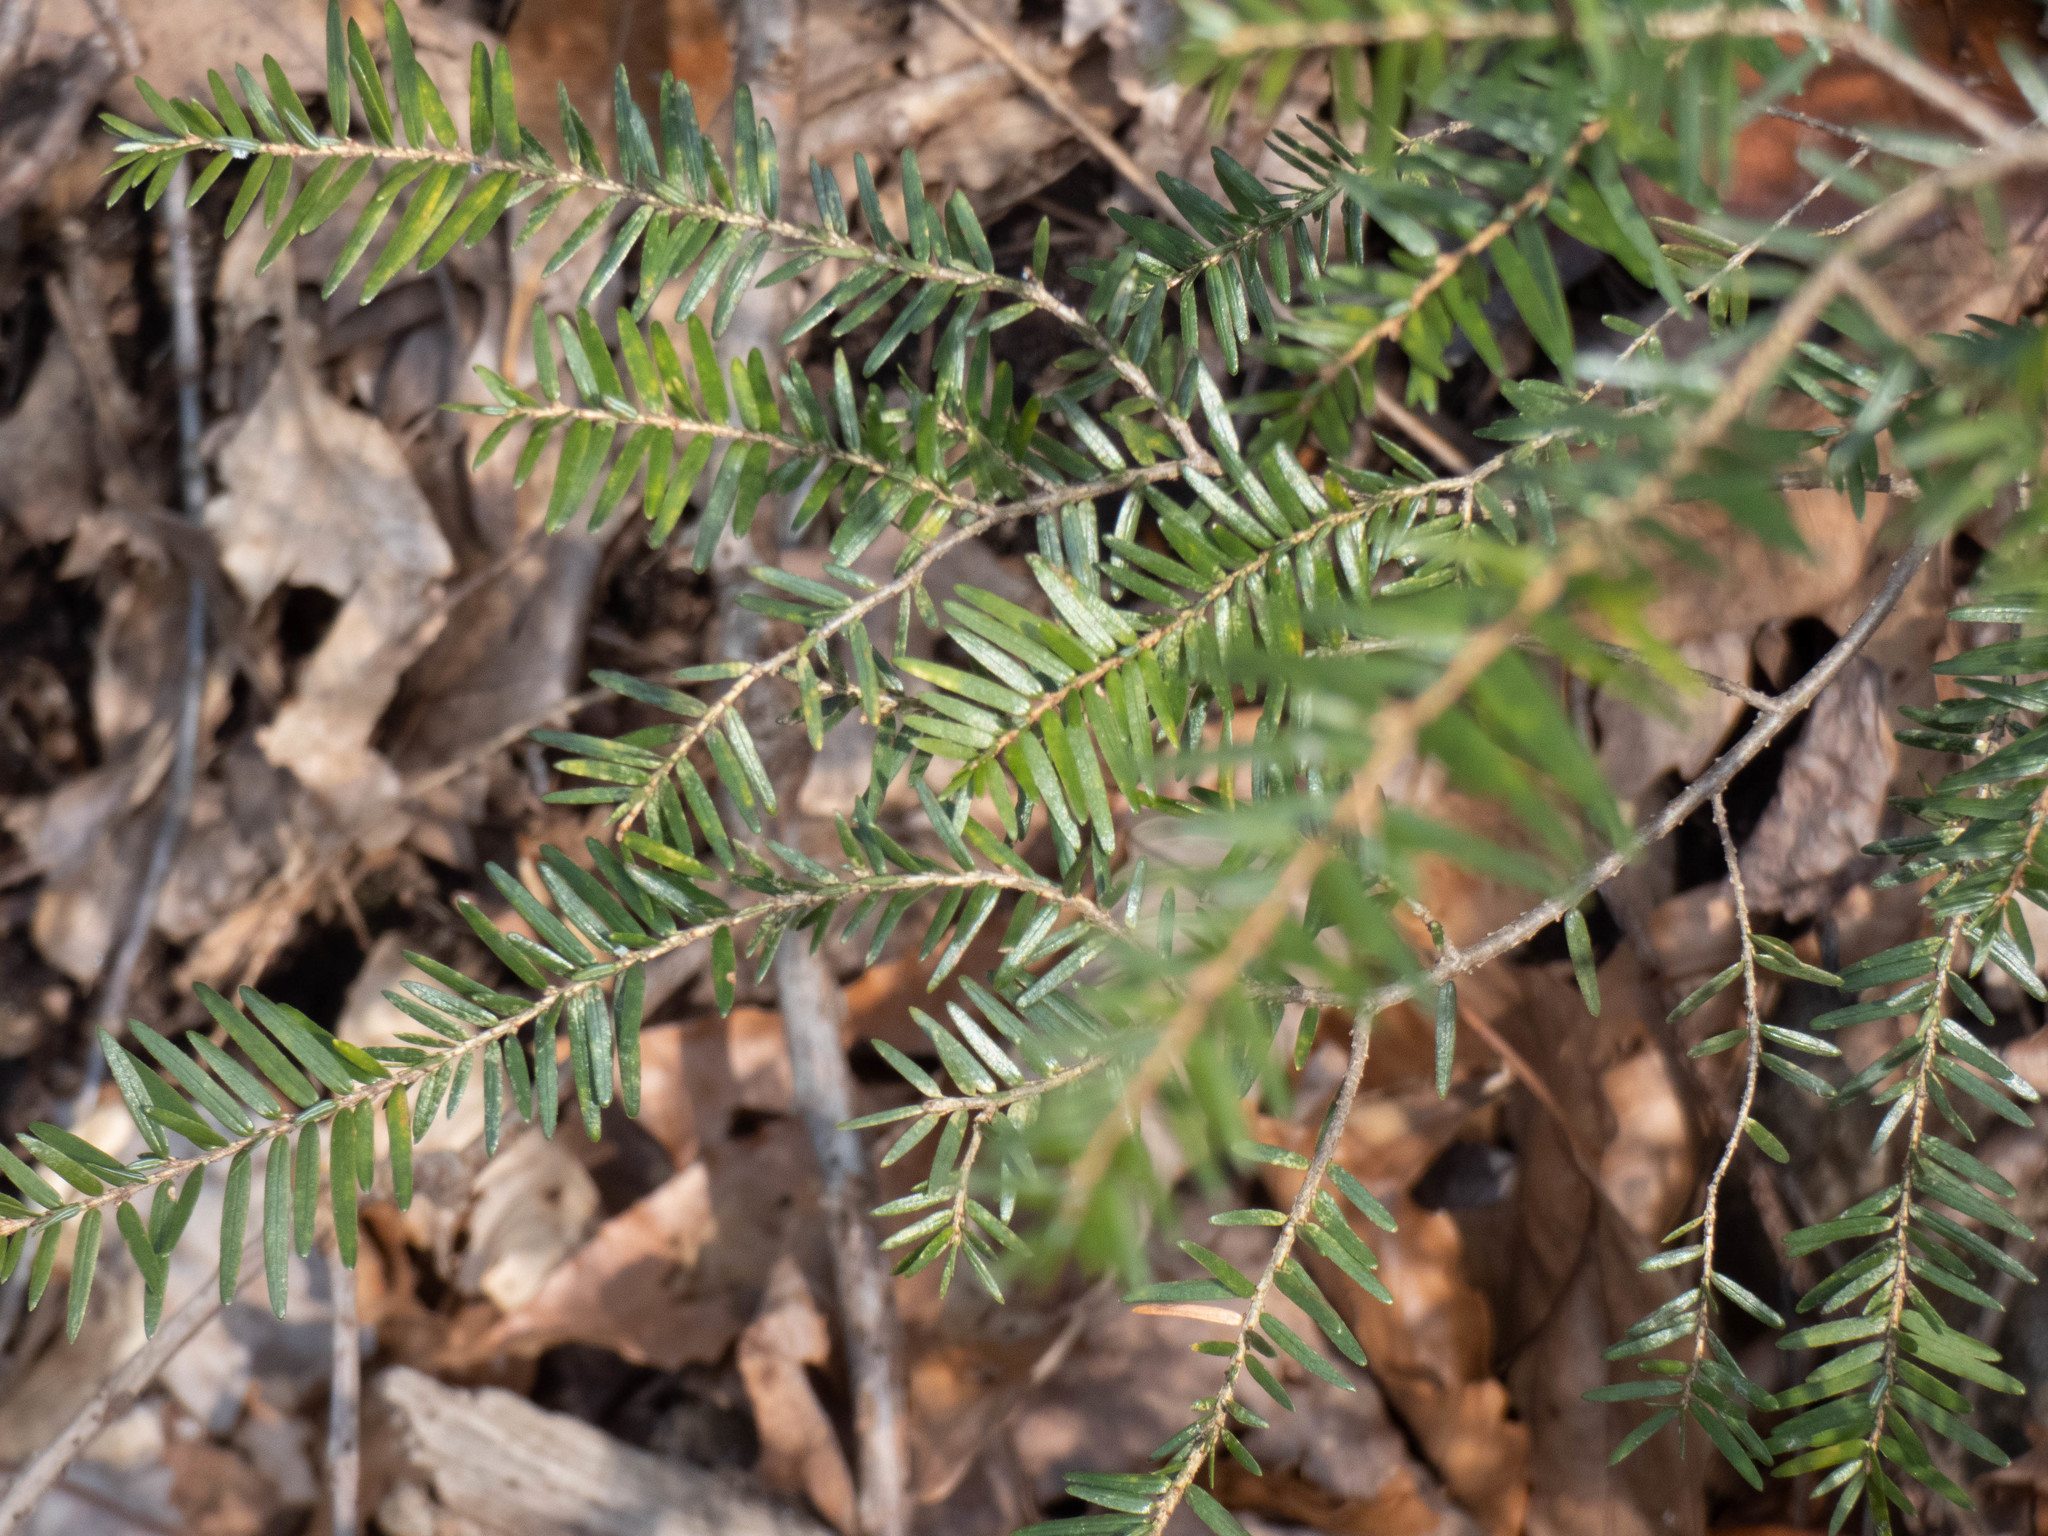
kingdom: Plantae
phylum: Tracheophyta
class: Pinopsida
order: Pinales
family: Pinaceae
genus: Tsuga
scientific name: Tsuga canadensis
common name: Eastern hemlock
